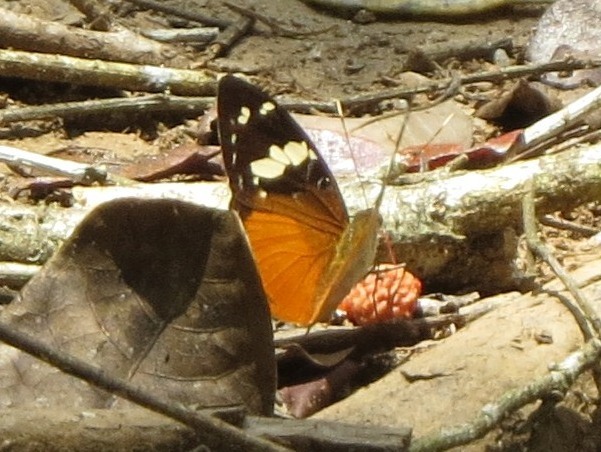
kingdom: Animalia
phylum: Arthropoda
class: Insecta
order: Lepidoptera
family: Nymphalidae
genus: Aterica
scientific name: Aterica rabena
